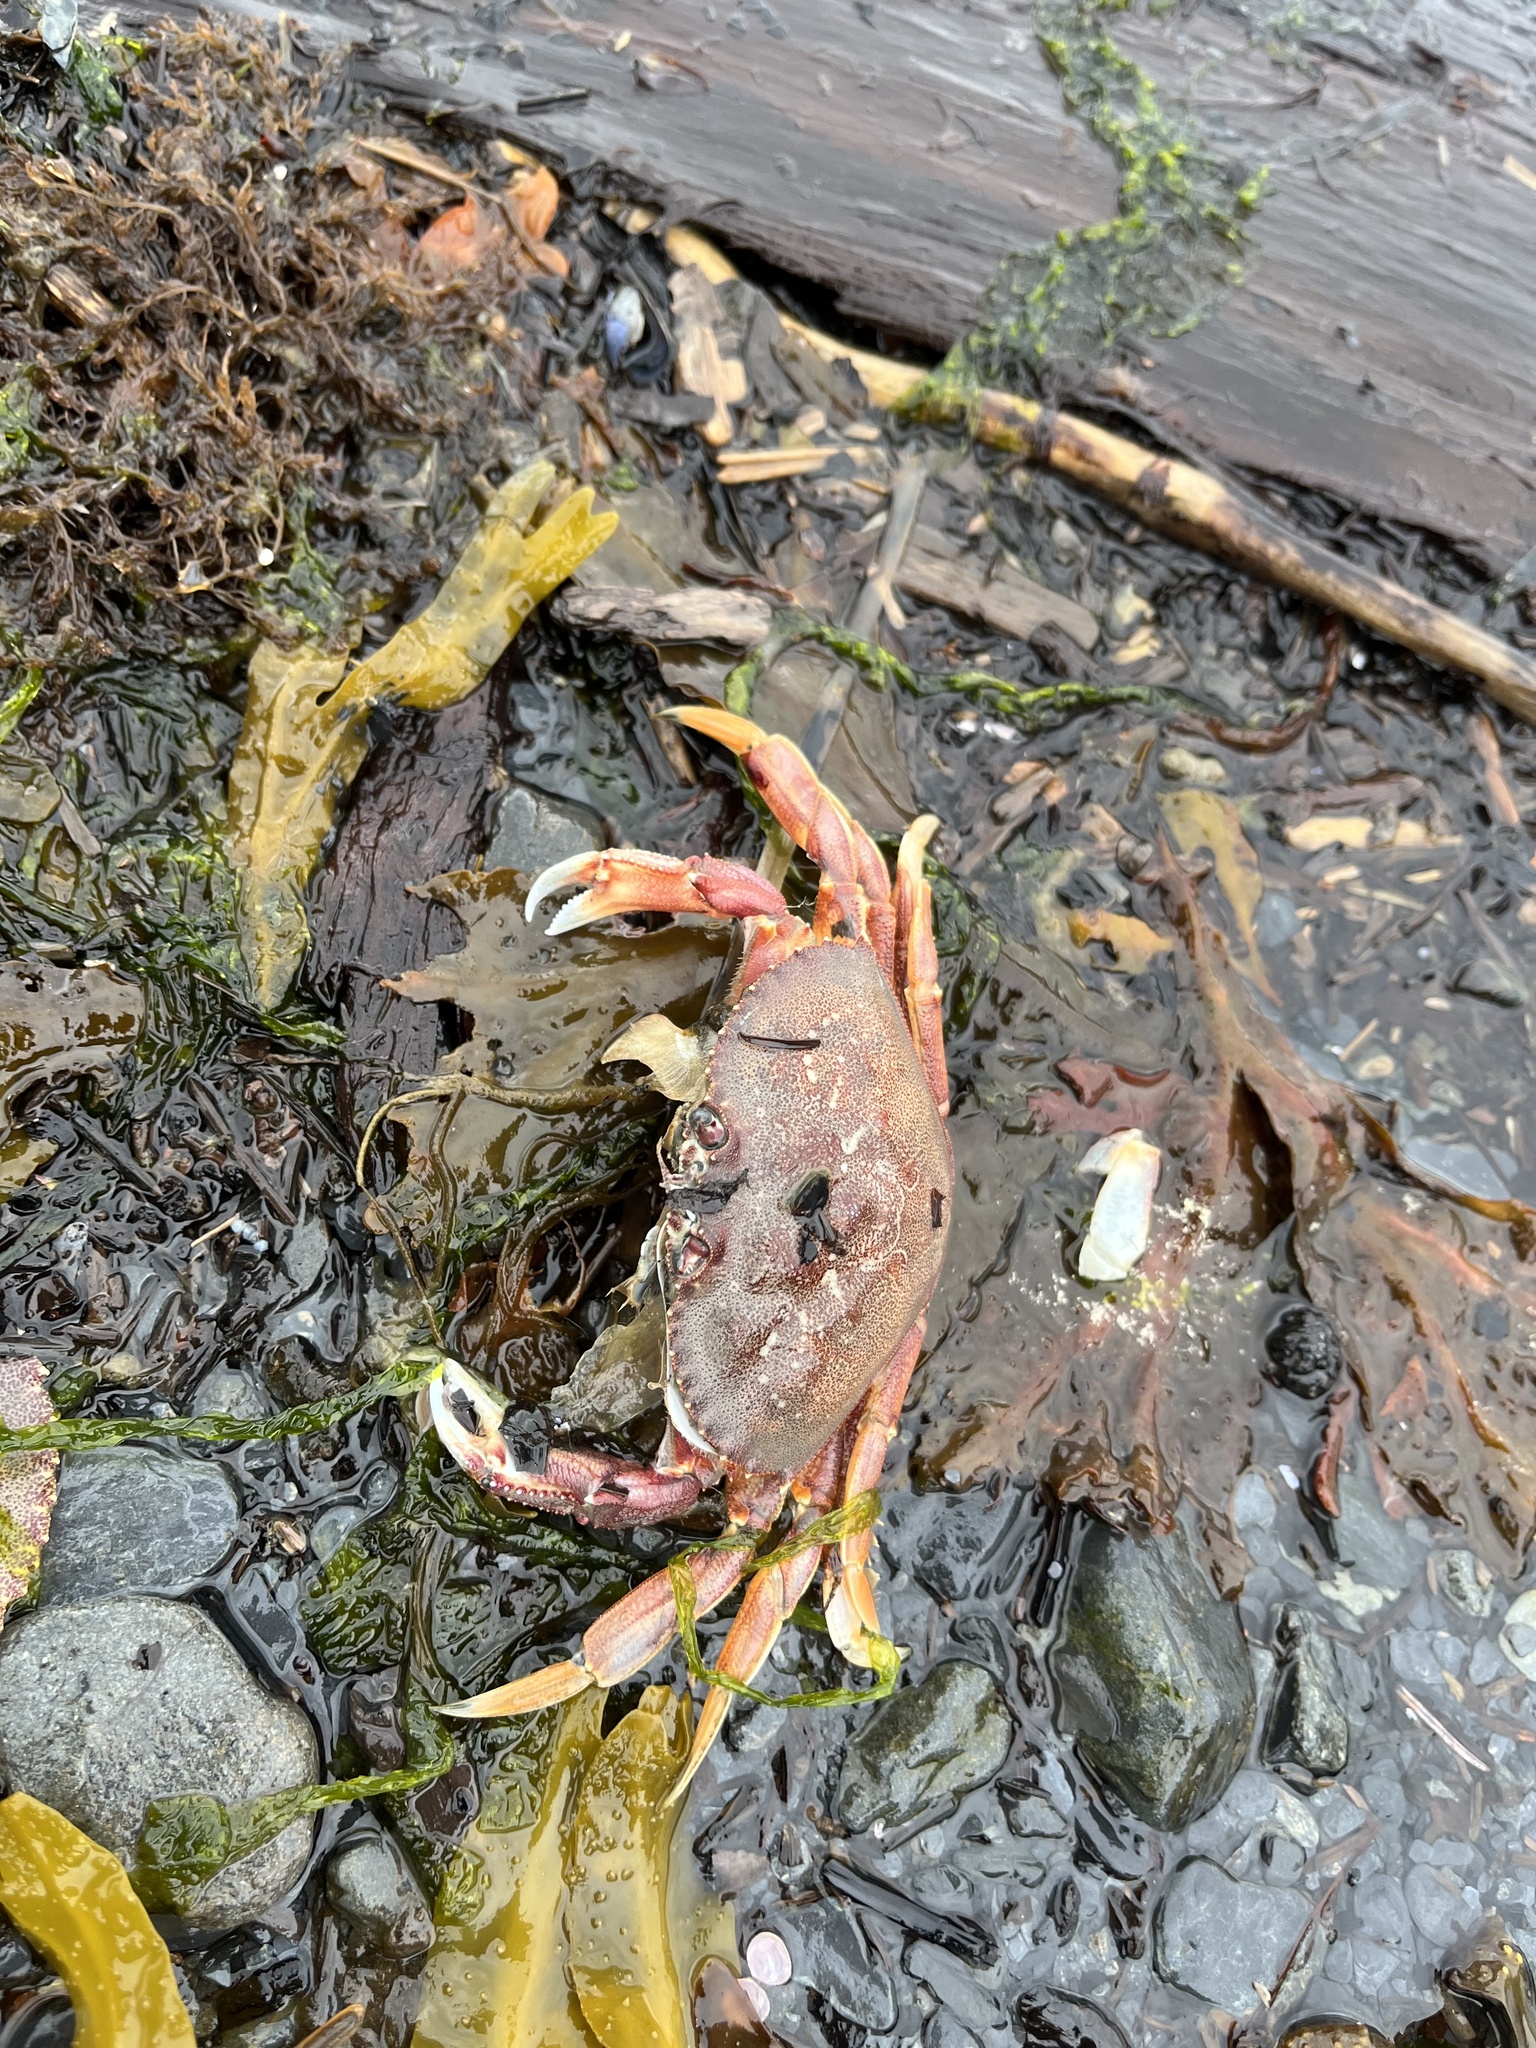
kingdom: Animalia
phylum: Arthropoda
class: Malacostraca
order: Decapoda
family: Cancridae
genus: Metacarcinus
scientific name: Metacarcinus magister
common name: Californian crab
